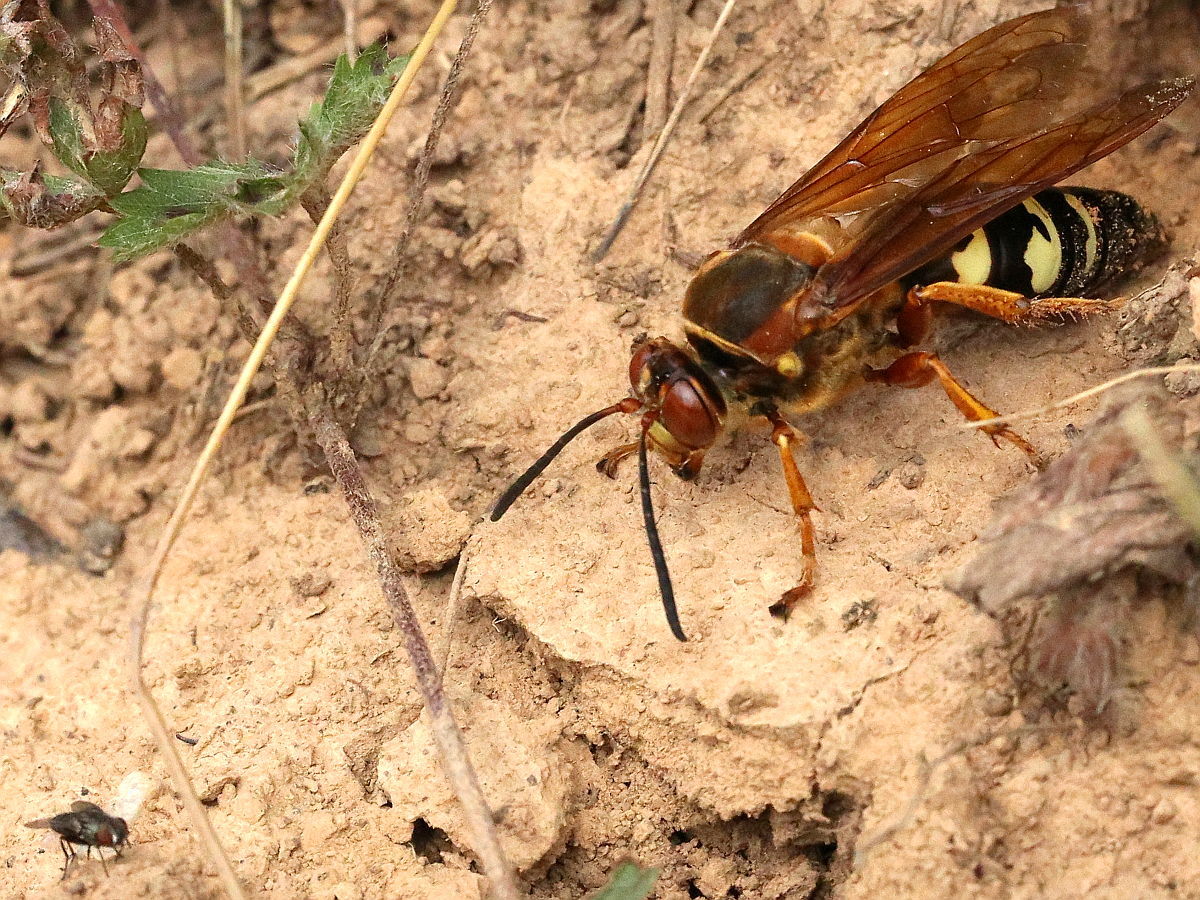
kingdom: Animalia
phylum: Arthropoda
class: Insecta
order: Hymenoptera
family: Crabronidae
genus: Sphecius
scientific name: Sphecius speciosus
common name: Cicada killer
